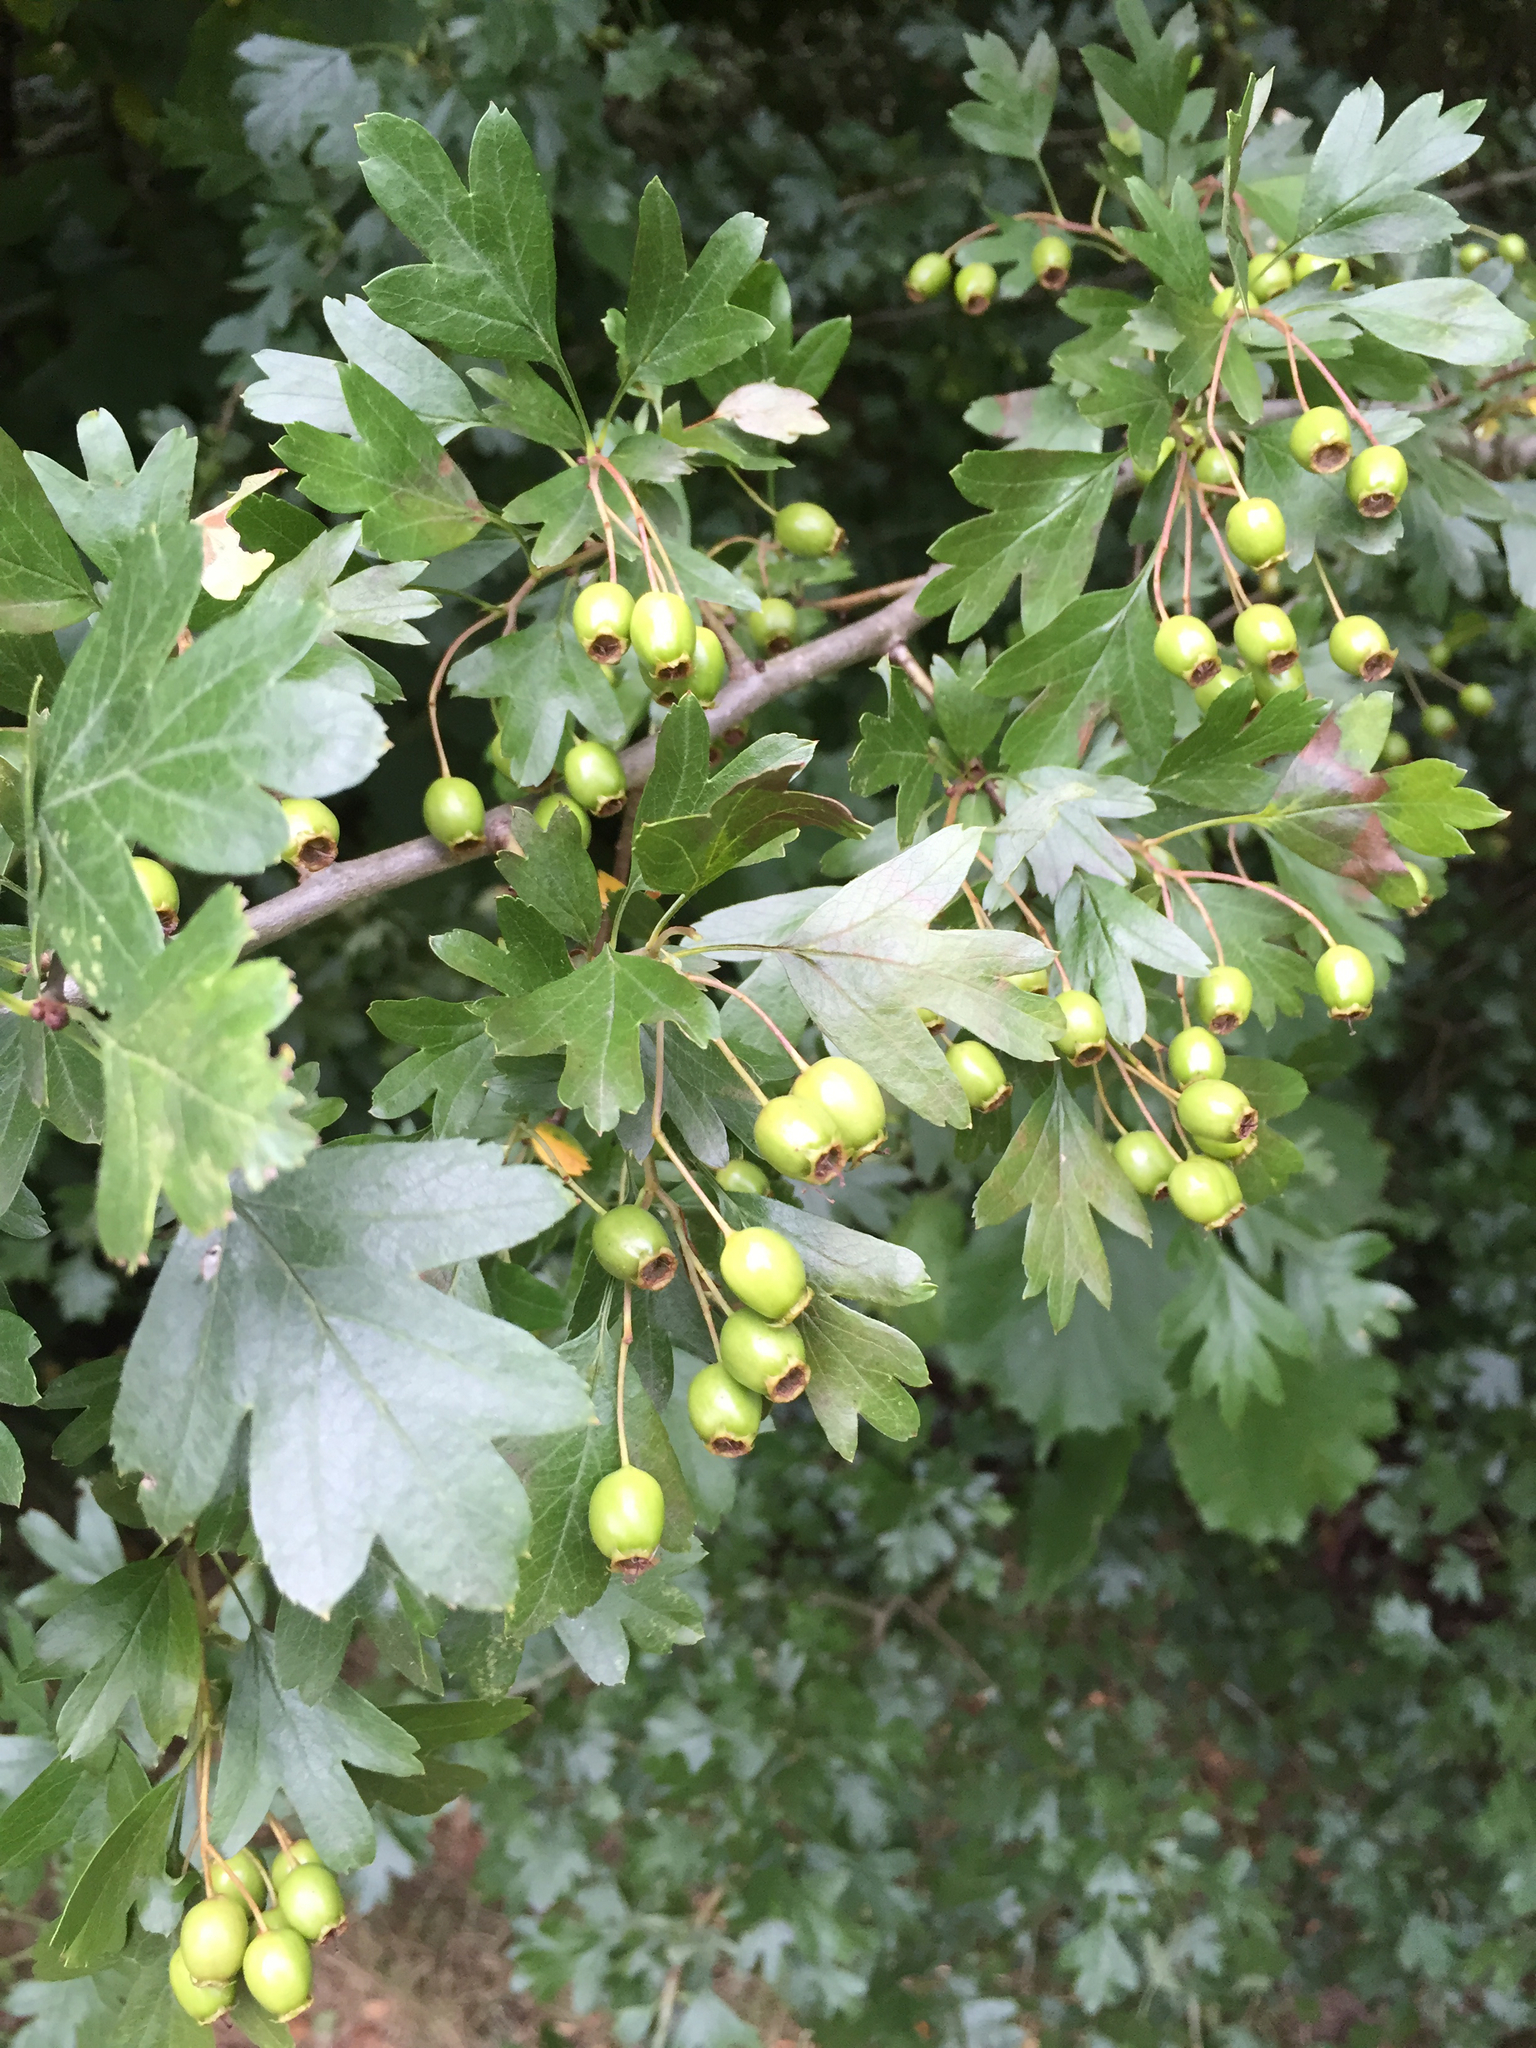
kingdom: Plantae
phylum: Tracheophyta
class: Magnoliopsida
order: Rosales
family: Rosaceae
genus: Crataegus
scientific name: Crataegus monogyna
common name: Hawthorn
